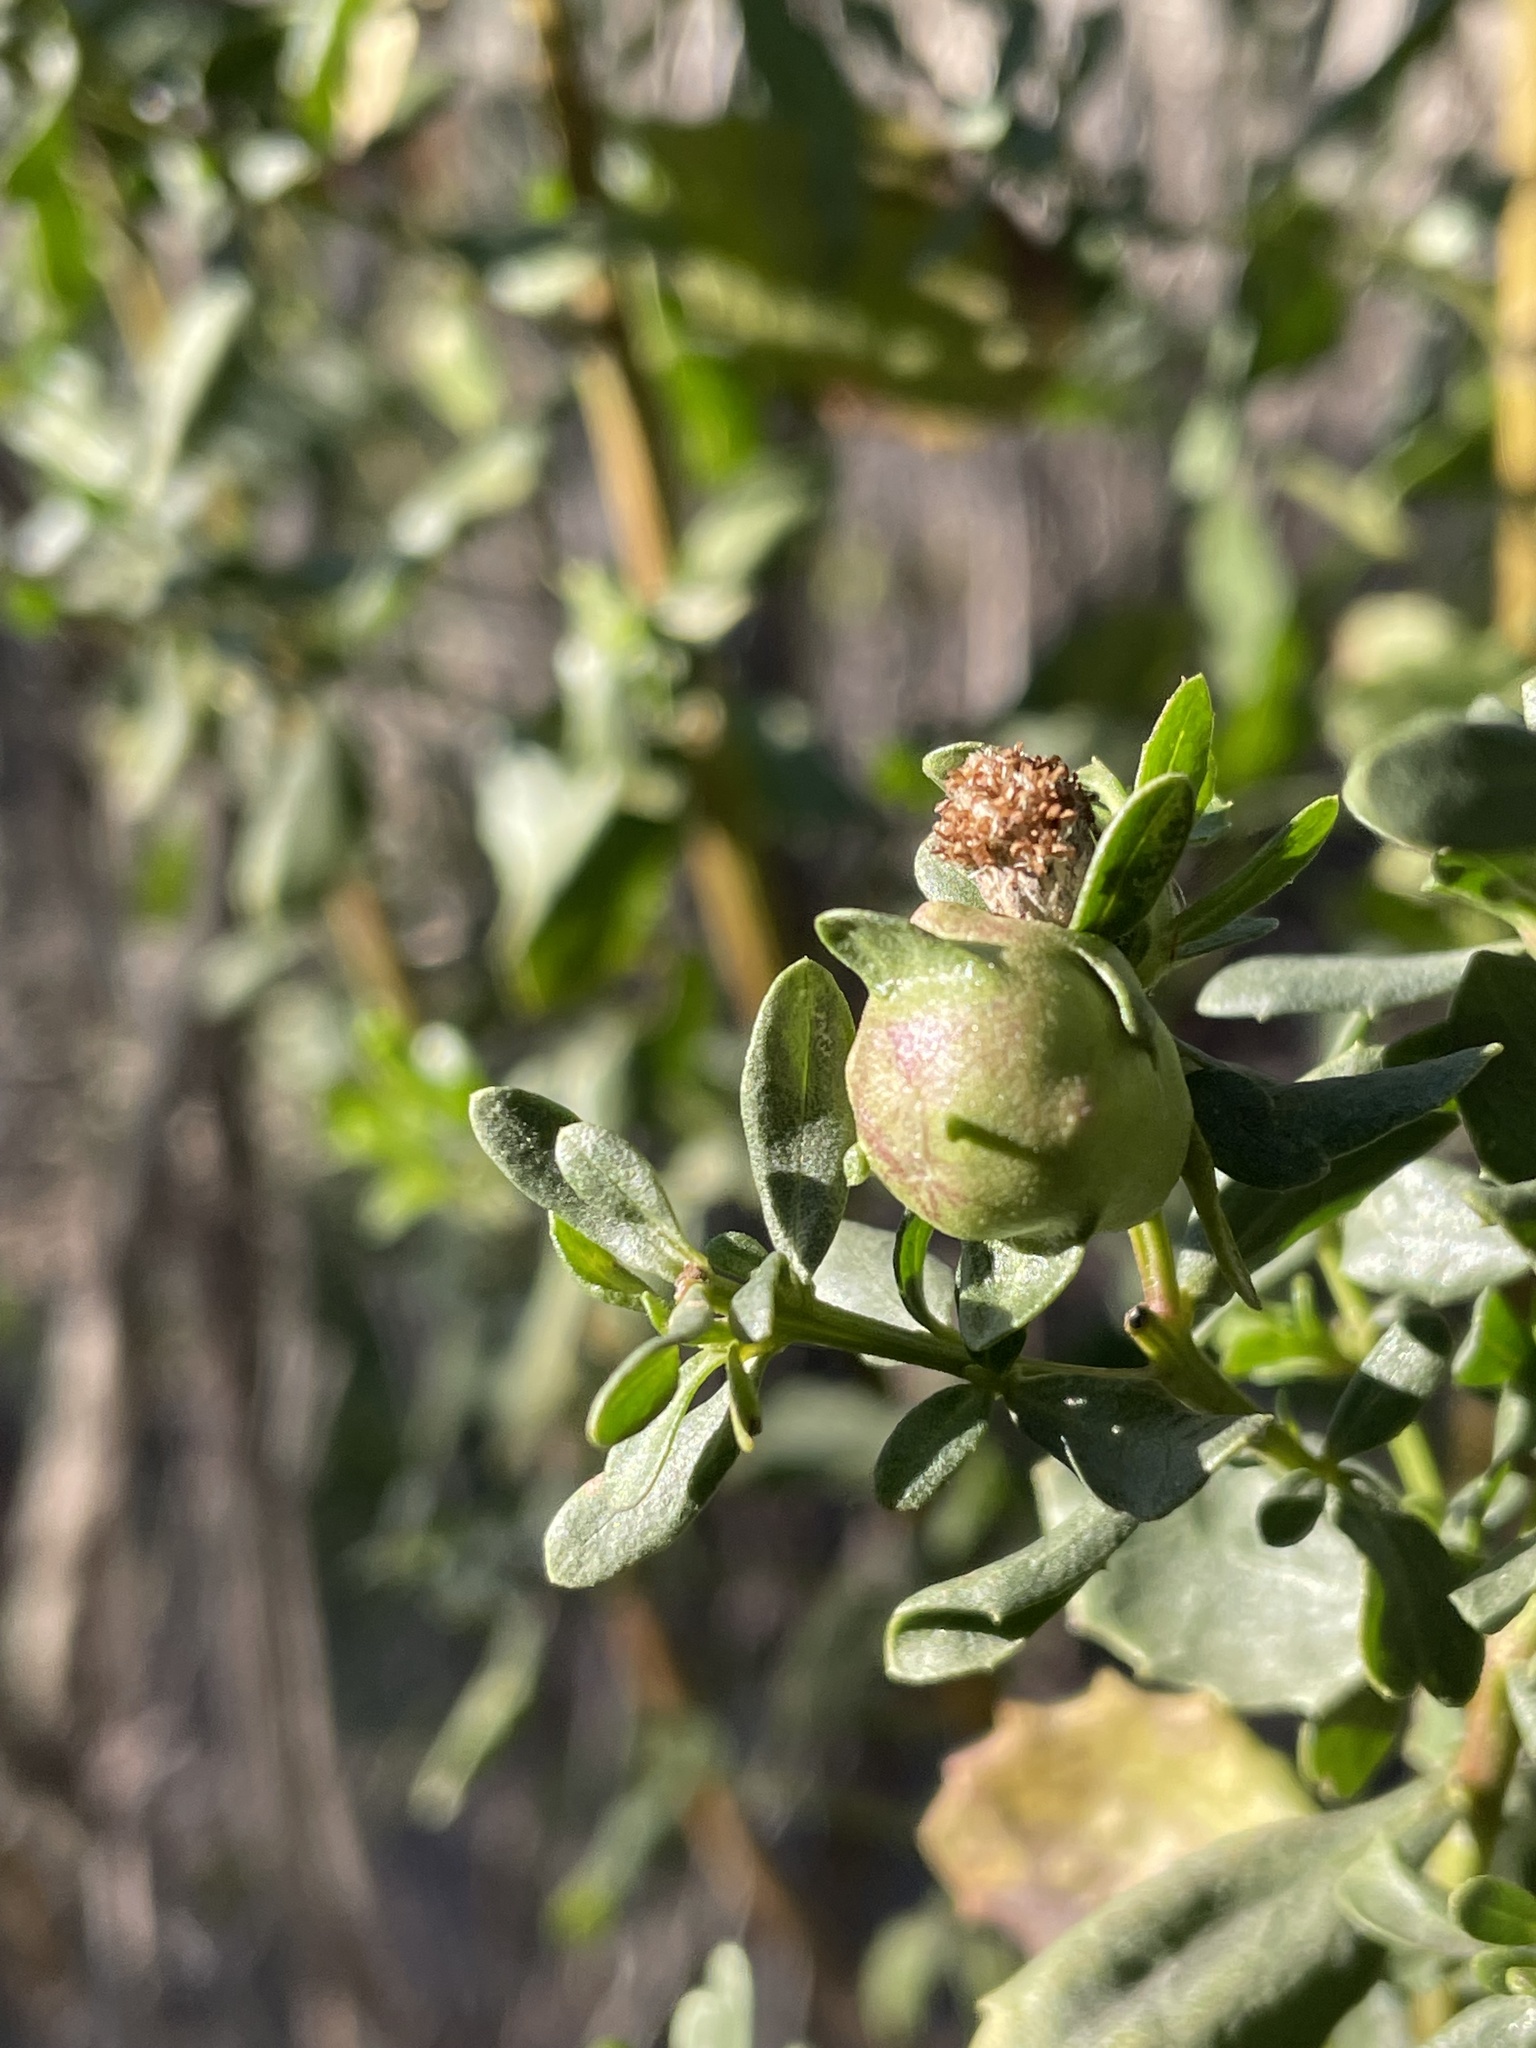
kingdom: Animalia
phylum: Arthropoda
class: Insecta
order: Diptera
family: Cecidomyiidae
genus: Rhopalomyia
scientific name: Rhopalomyia californica
